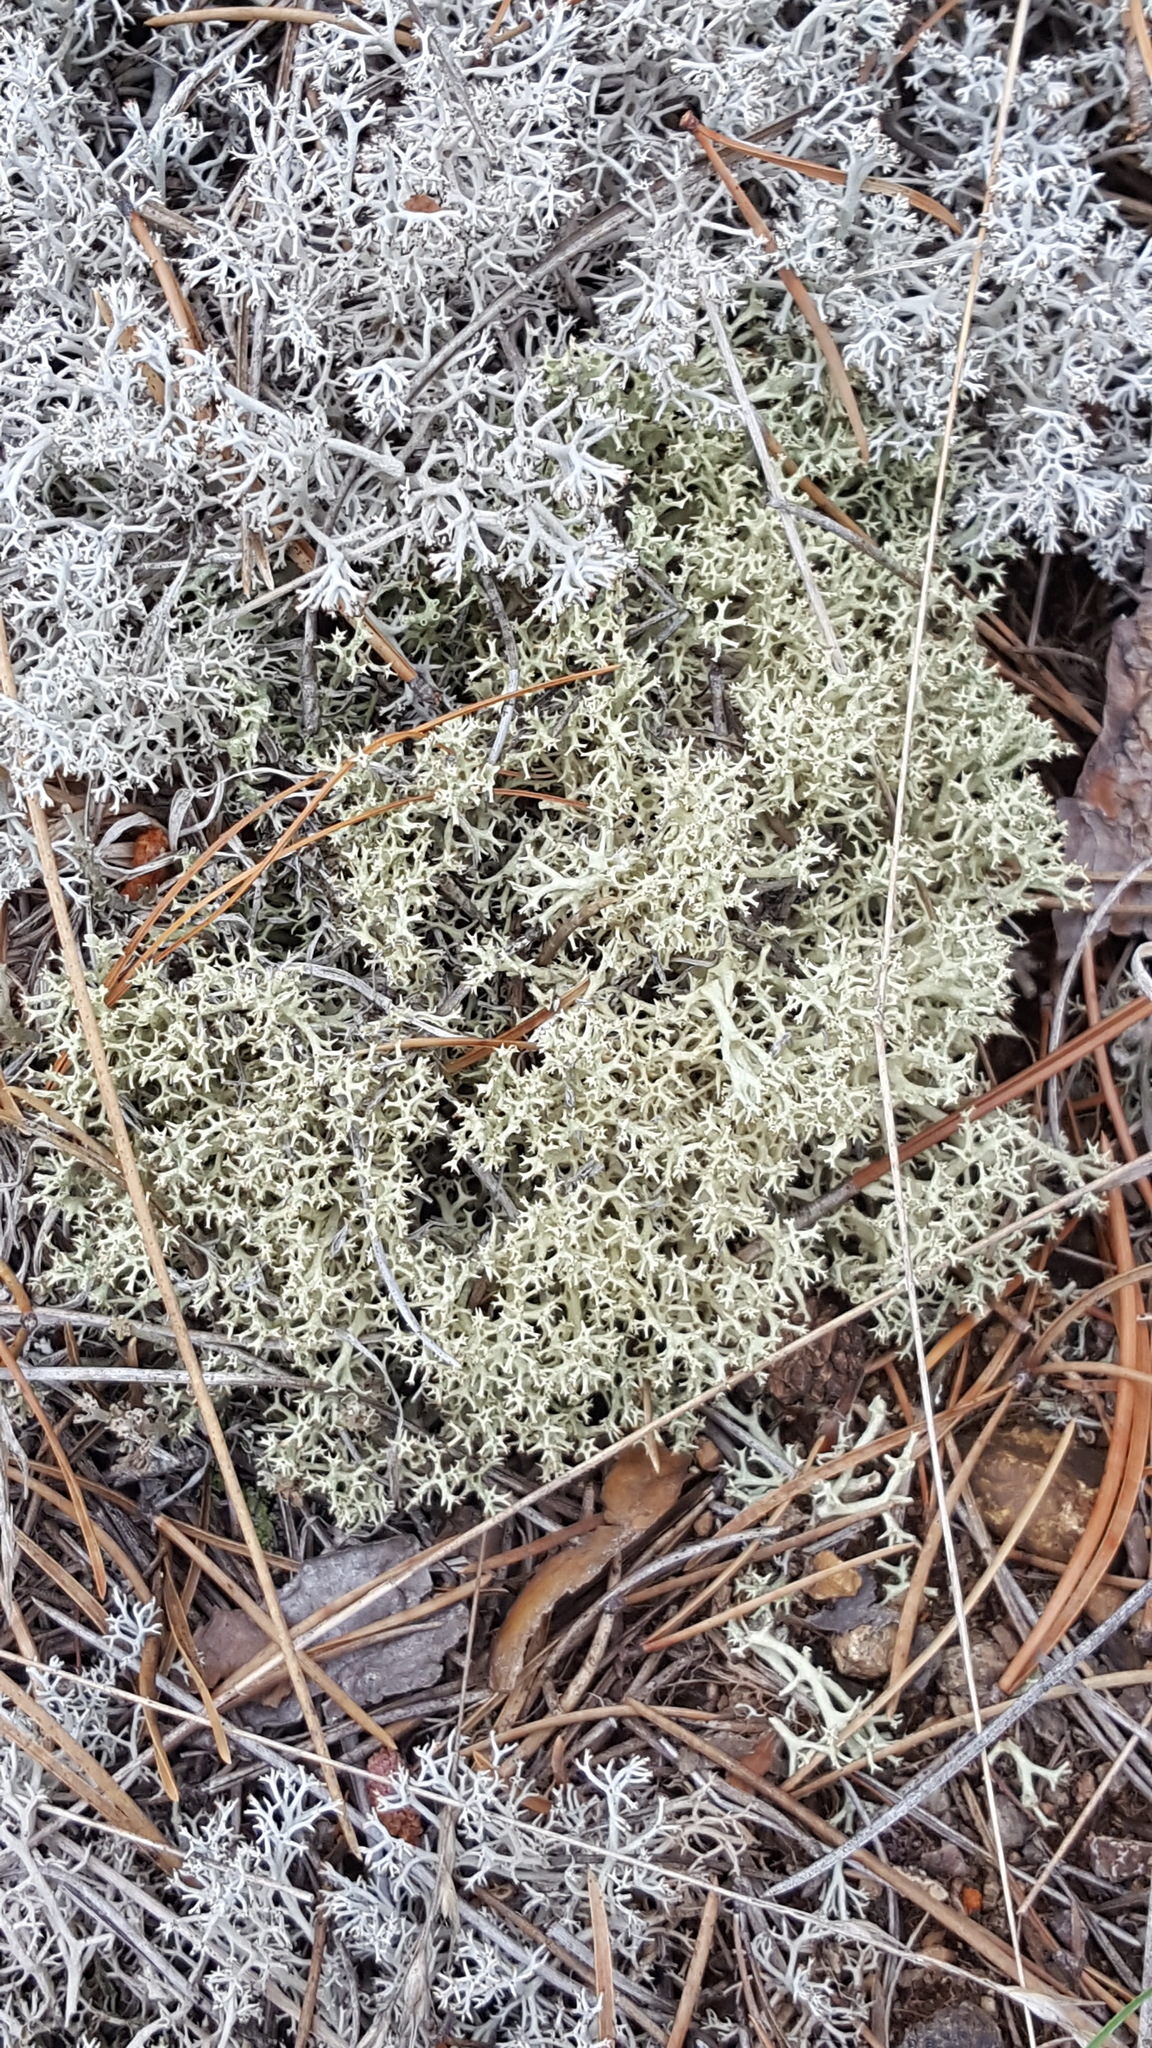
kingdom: Fungi
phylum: Ascomycota
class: Lecanoromycetes
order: Lecanorales
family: Cladoniaceae
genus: Cladonia
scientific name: Cladonia mitis
